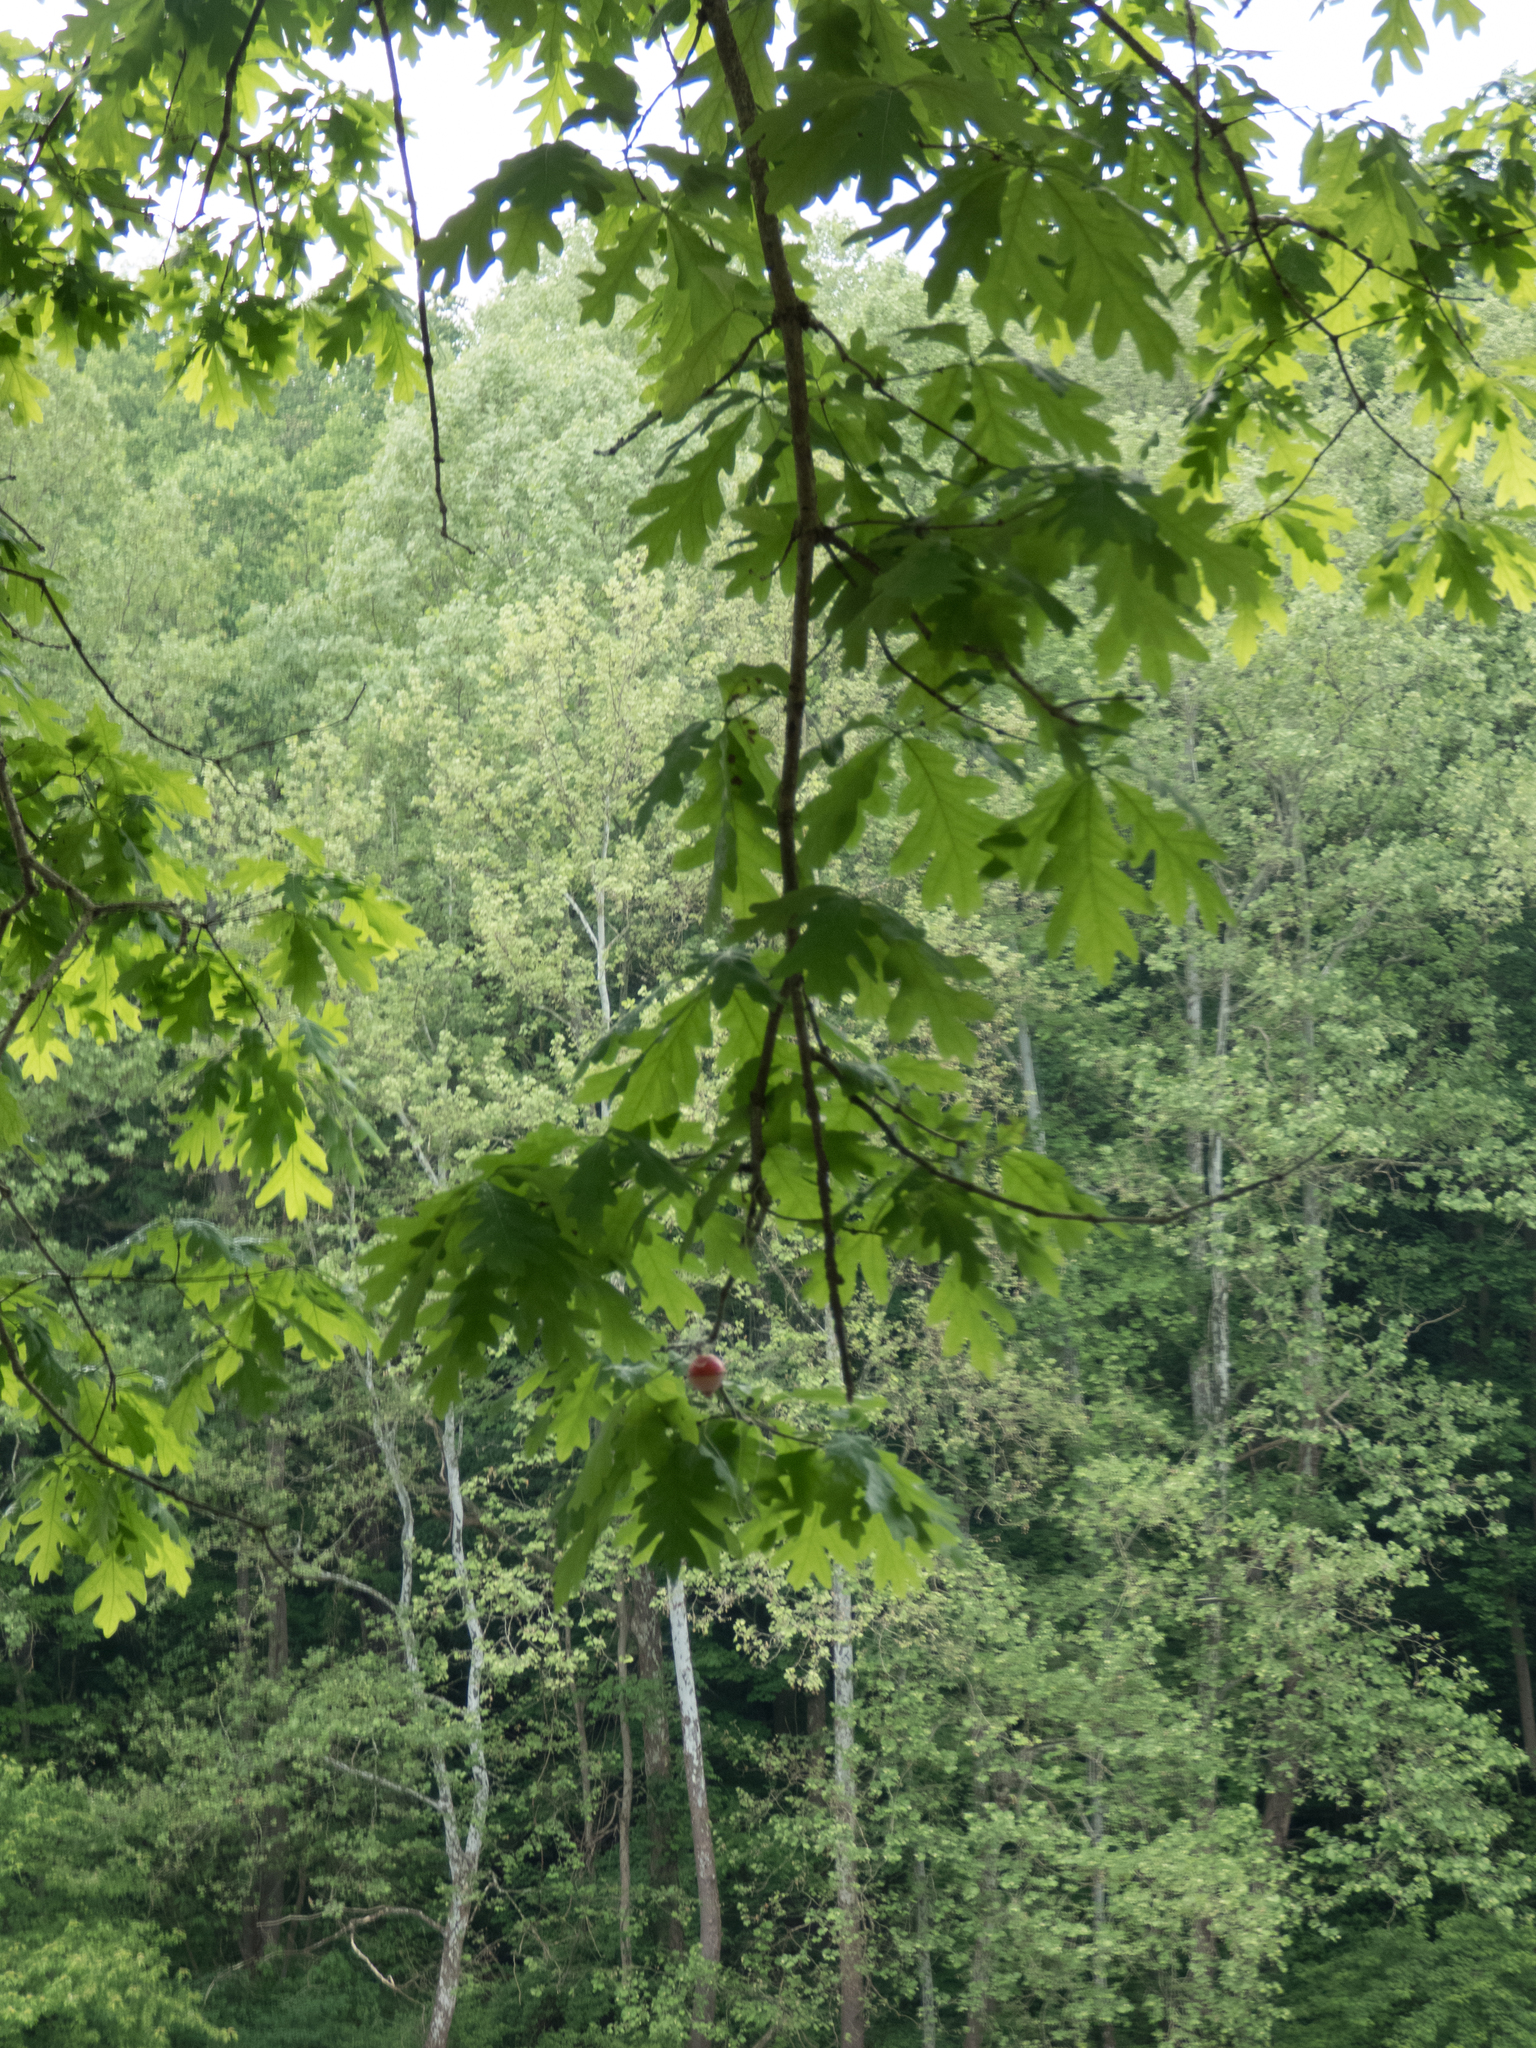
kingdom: Plantae
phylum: Tracheophyta
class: Magnoliopsida
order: Fagales
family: Fagaceae
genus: Quercus
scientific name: Quercus alba
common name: White oak
